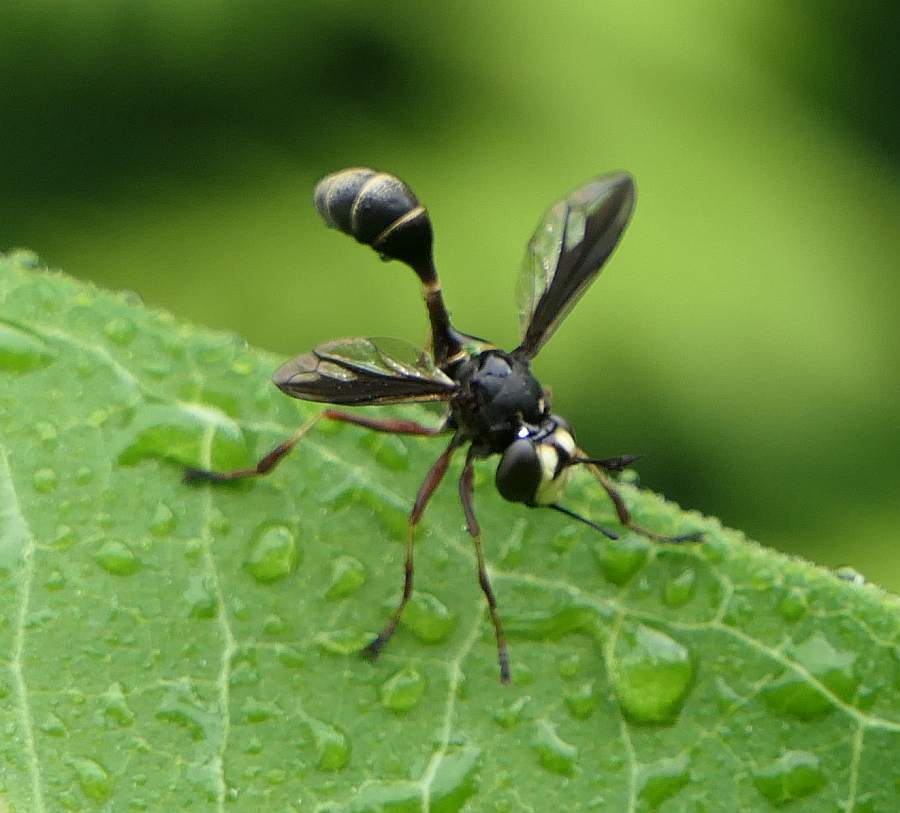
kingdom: Animalia
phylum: Arthropoda
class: Insecta
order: Diptera
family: Conopidae
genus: Physocephala
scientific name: Physocephala furcillata
